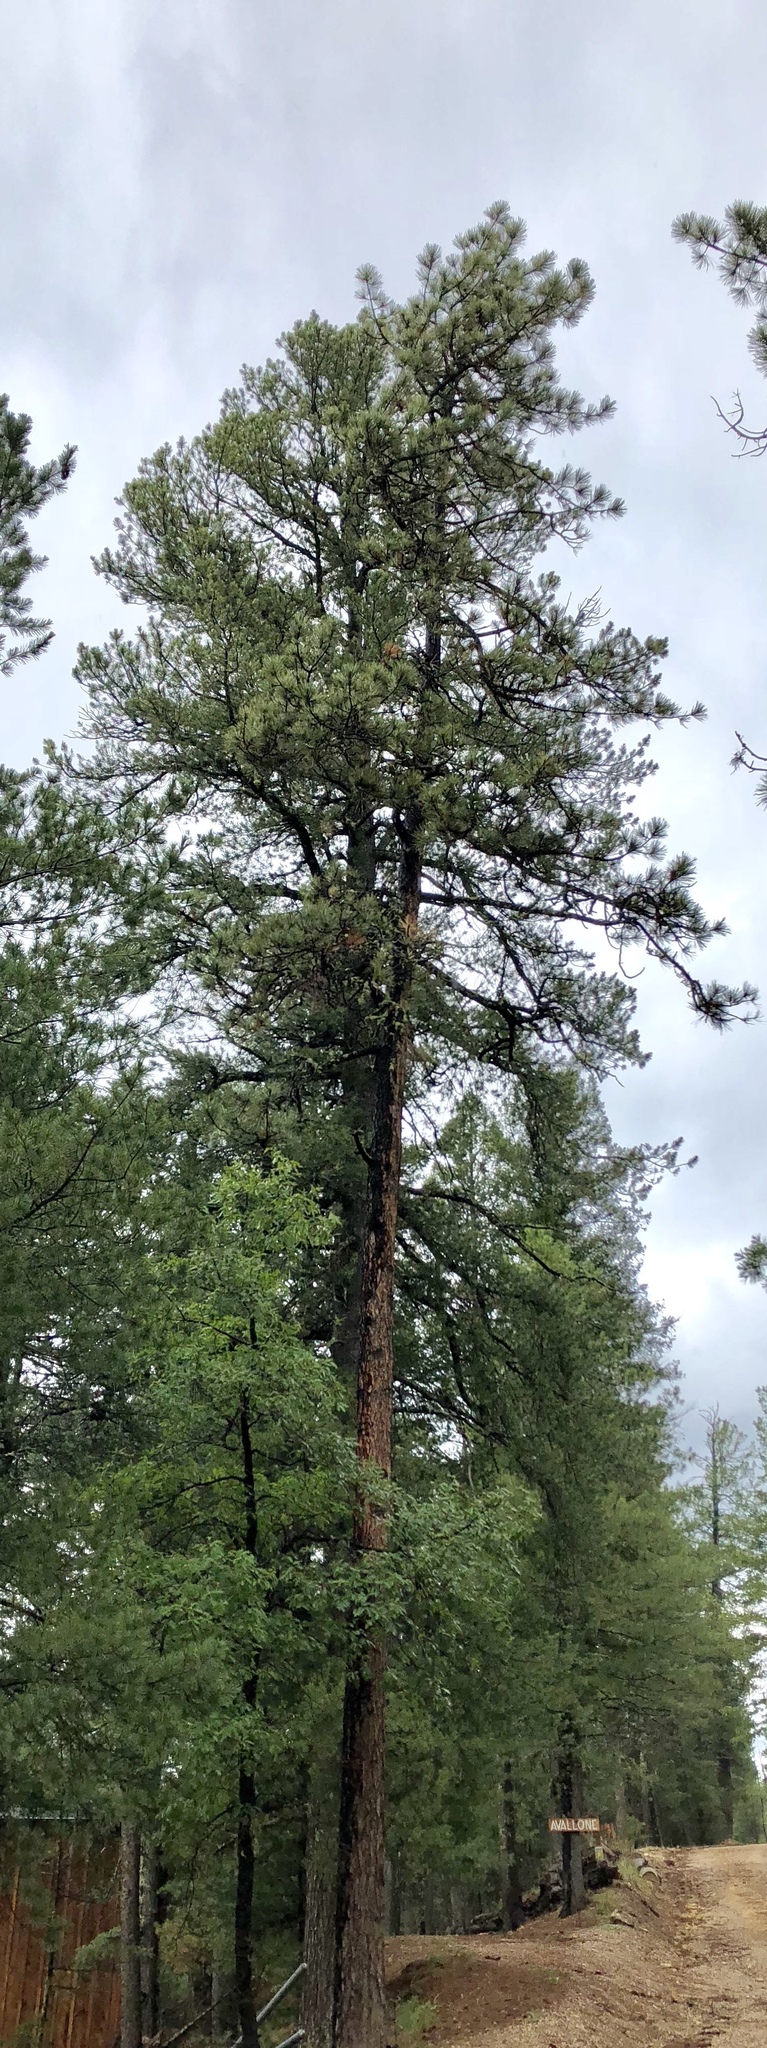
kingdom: Plantae
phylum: Tracheophyta
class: Pinopsida
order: Pinales
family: Pinaceae
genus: Pinus
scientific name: Pinus ponderosa
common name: Western yellow-pine
